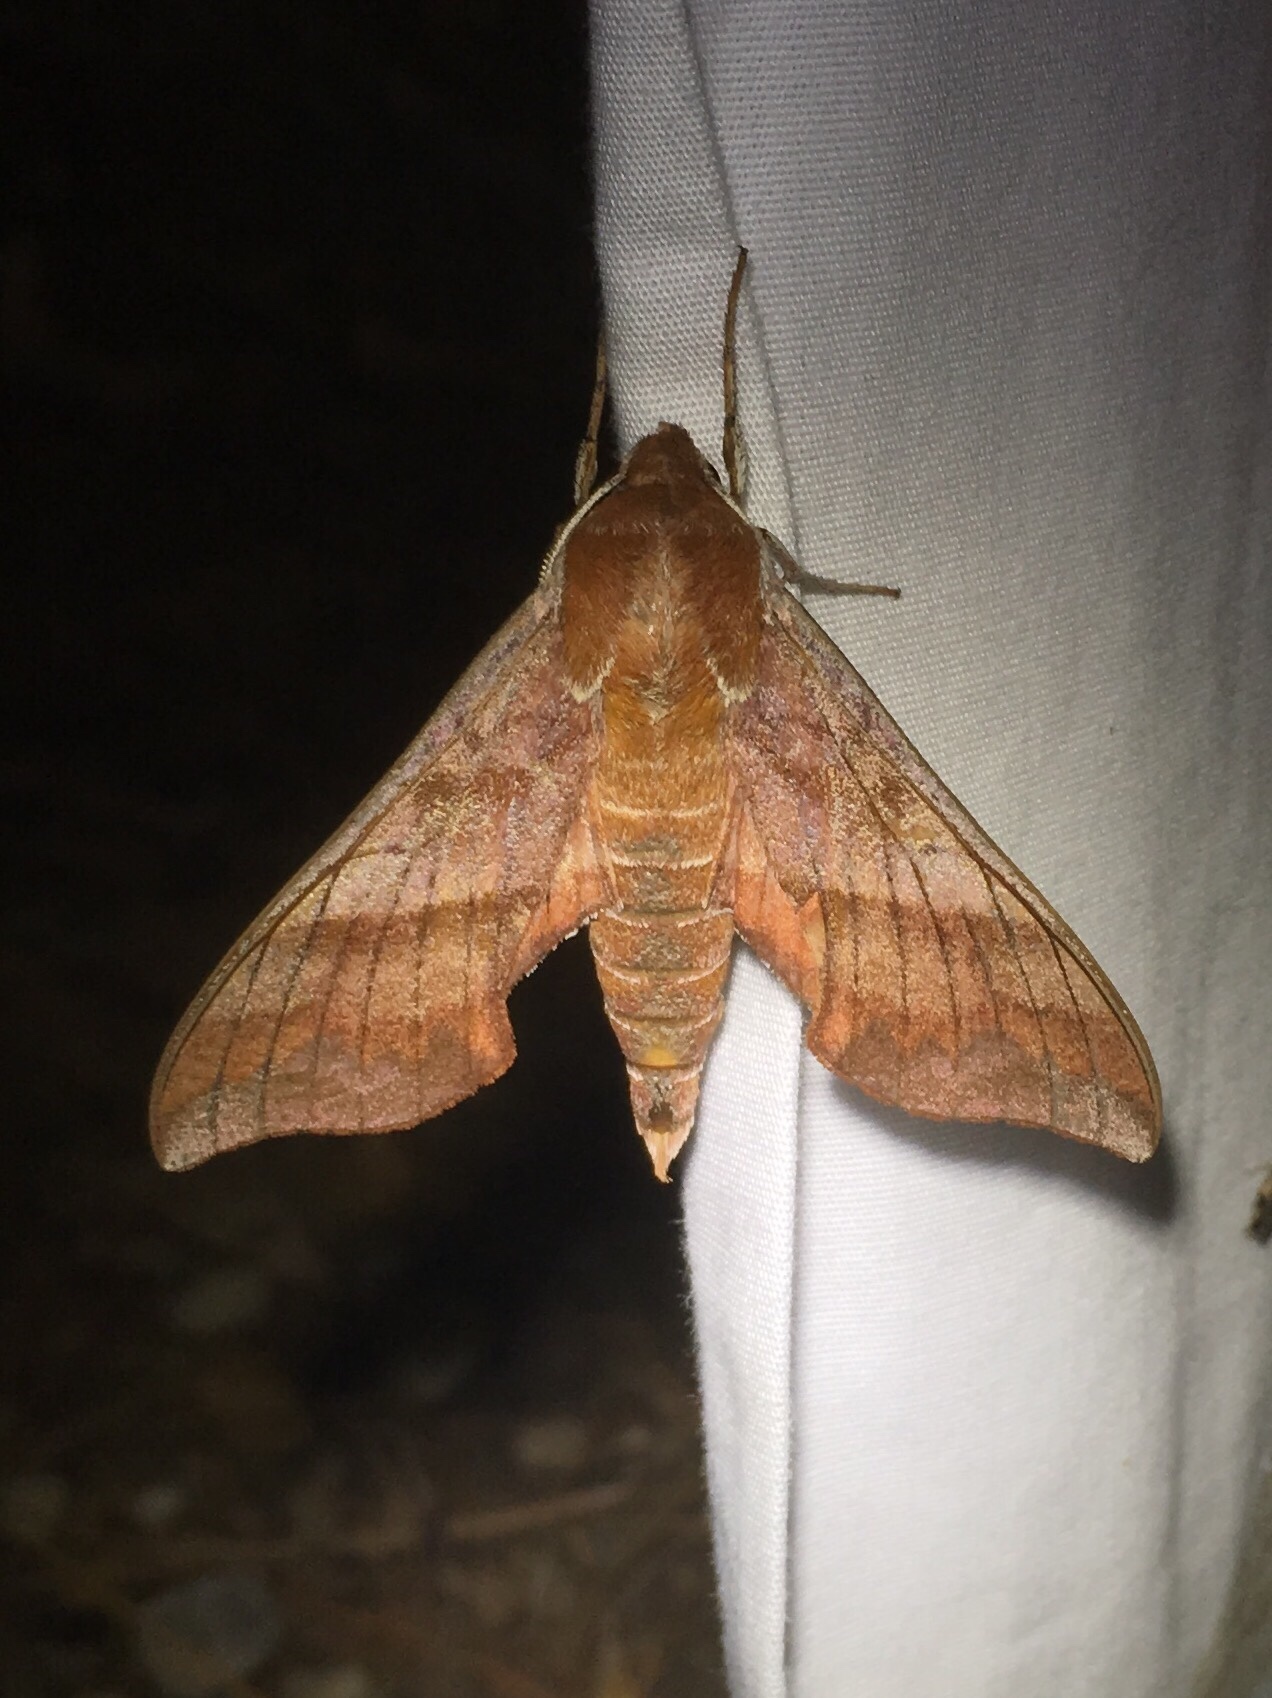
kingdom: Animalia
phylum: Arthropoda
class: Insecta
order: Lepidoptera
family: Sphingidae
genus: Darapsa
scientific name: Darapsa choerilus
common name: Azalea sphinx
